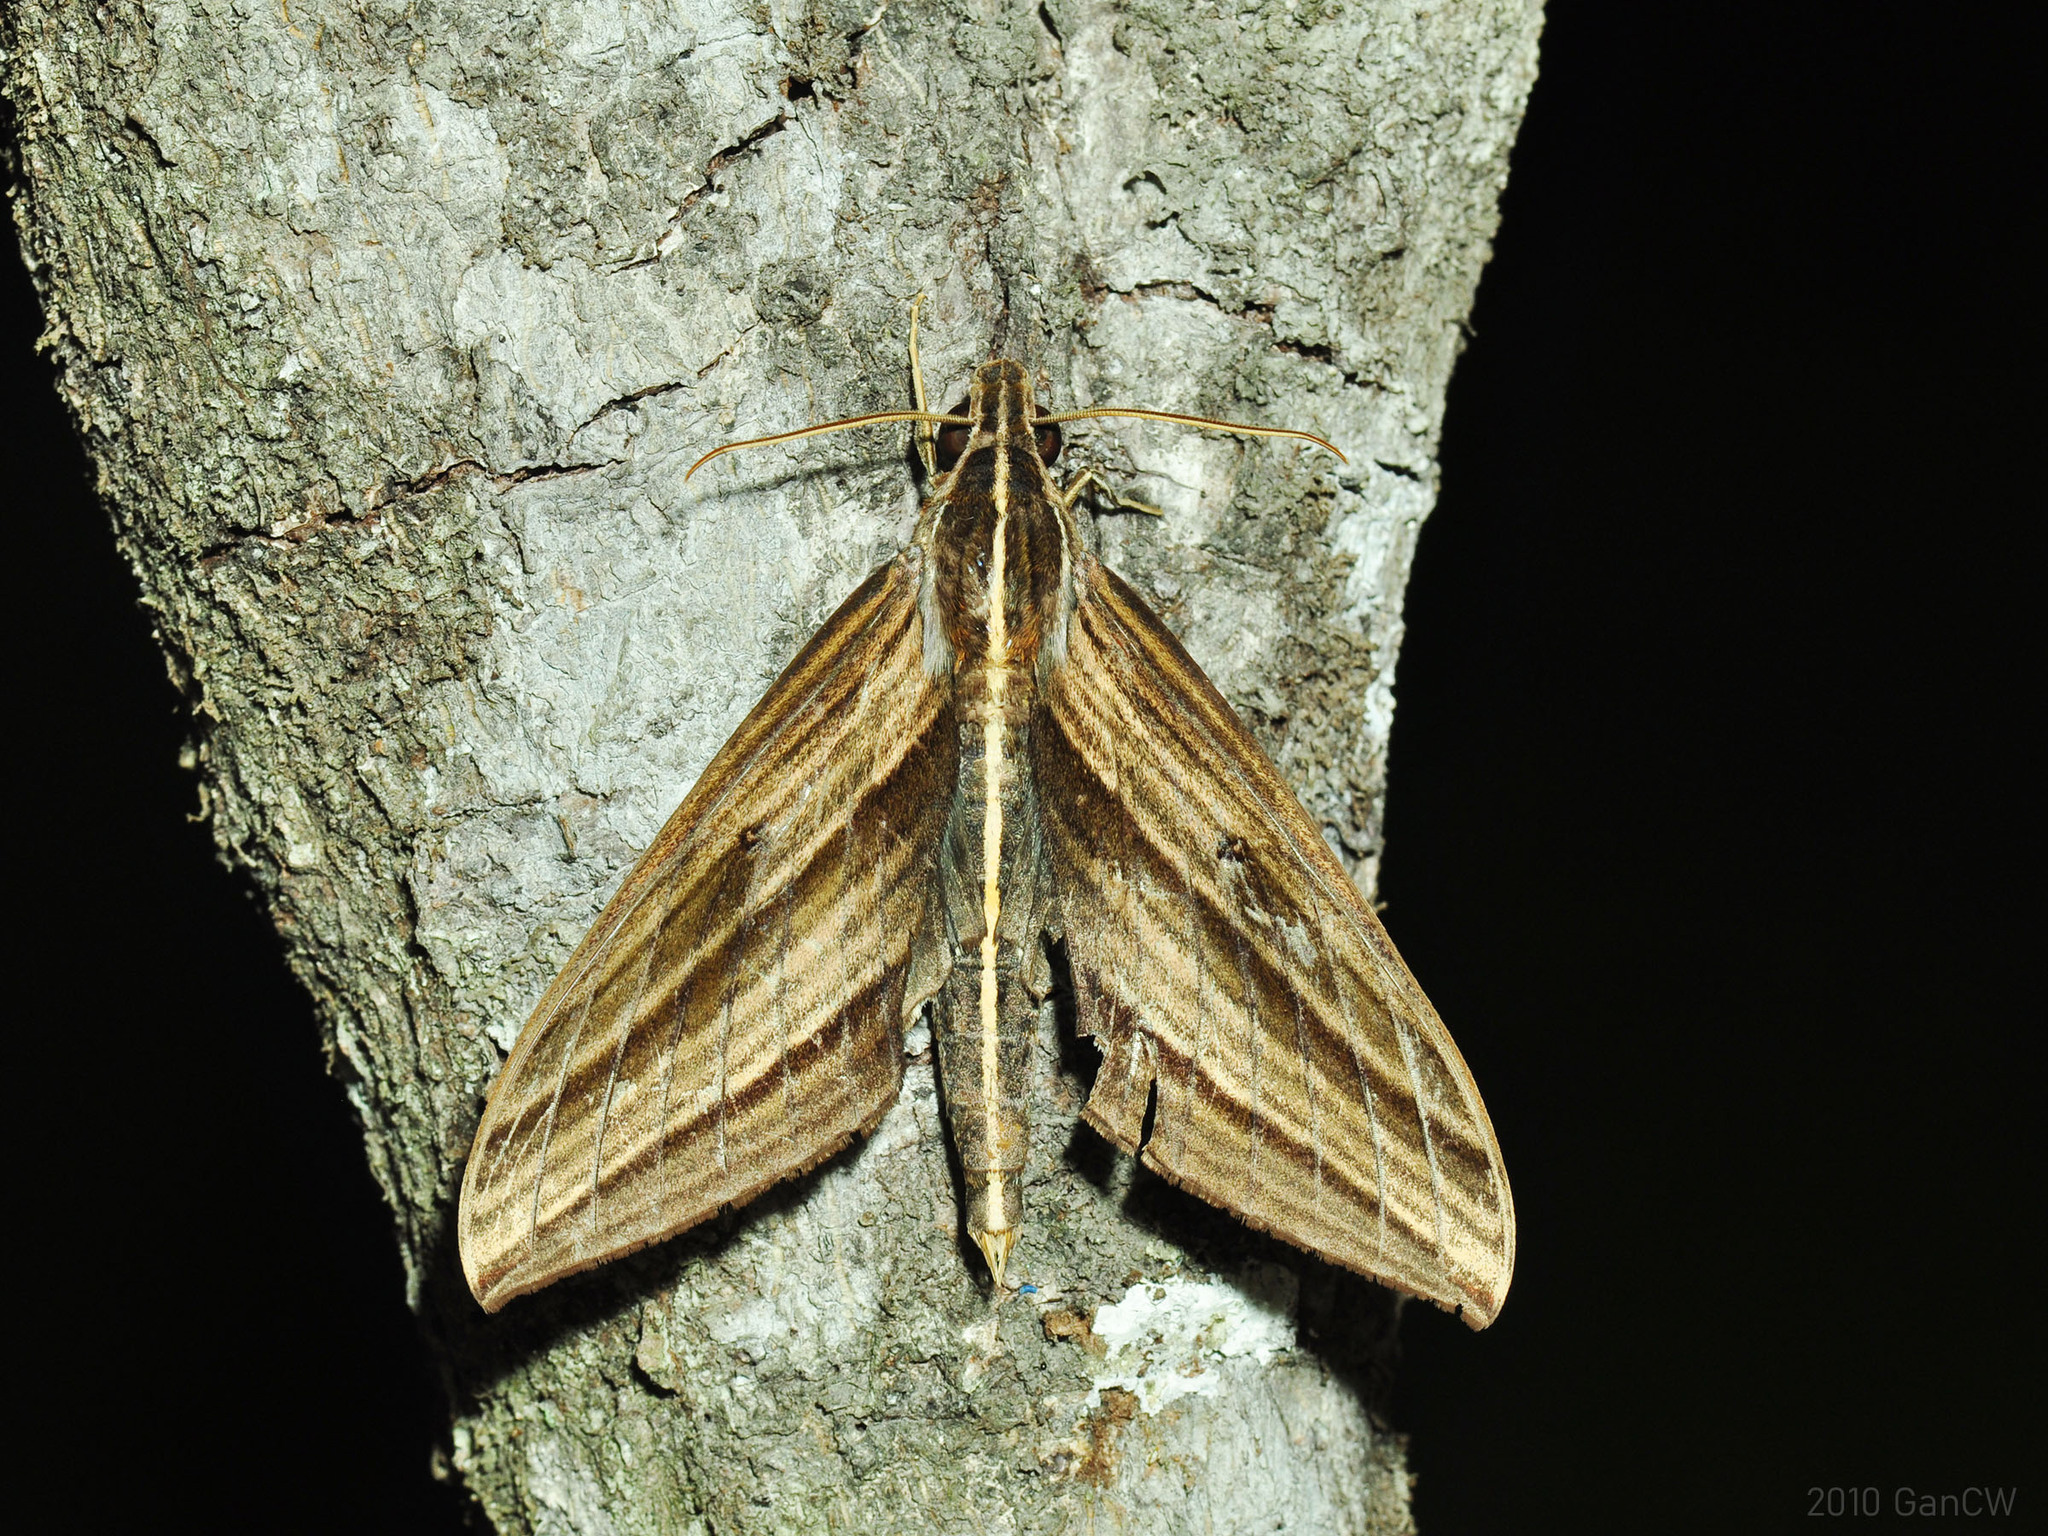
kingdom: Animalia
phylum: Arthropoda
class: Insecta
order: Lepidoptera
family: Sphingidae
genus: Elibia
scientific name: Elibia dolichus
